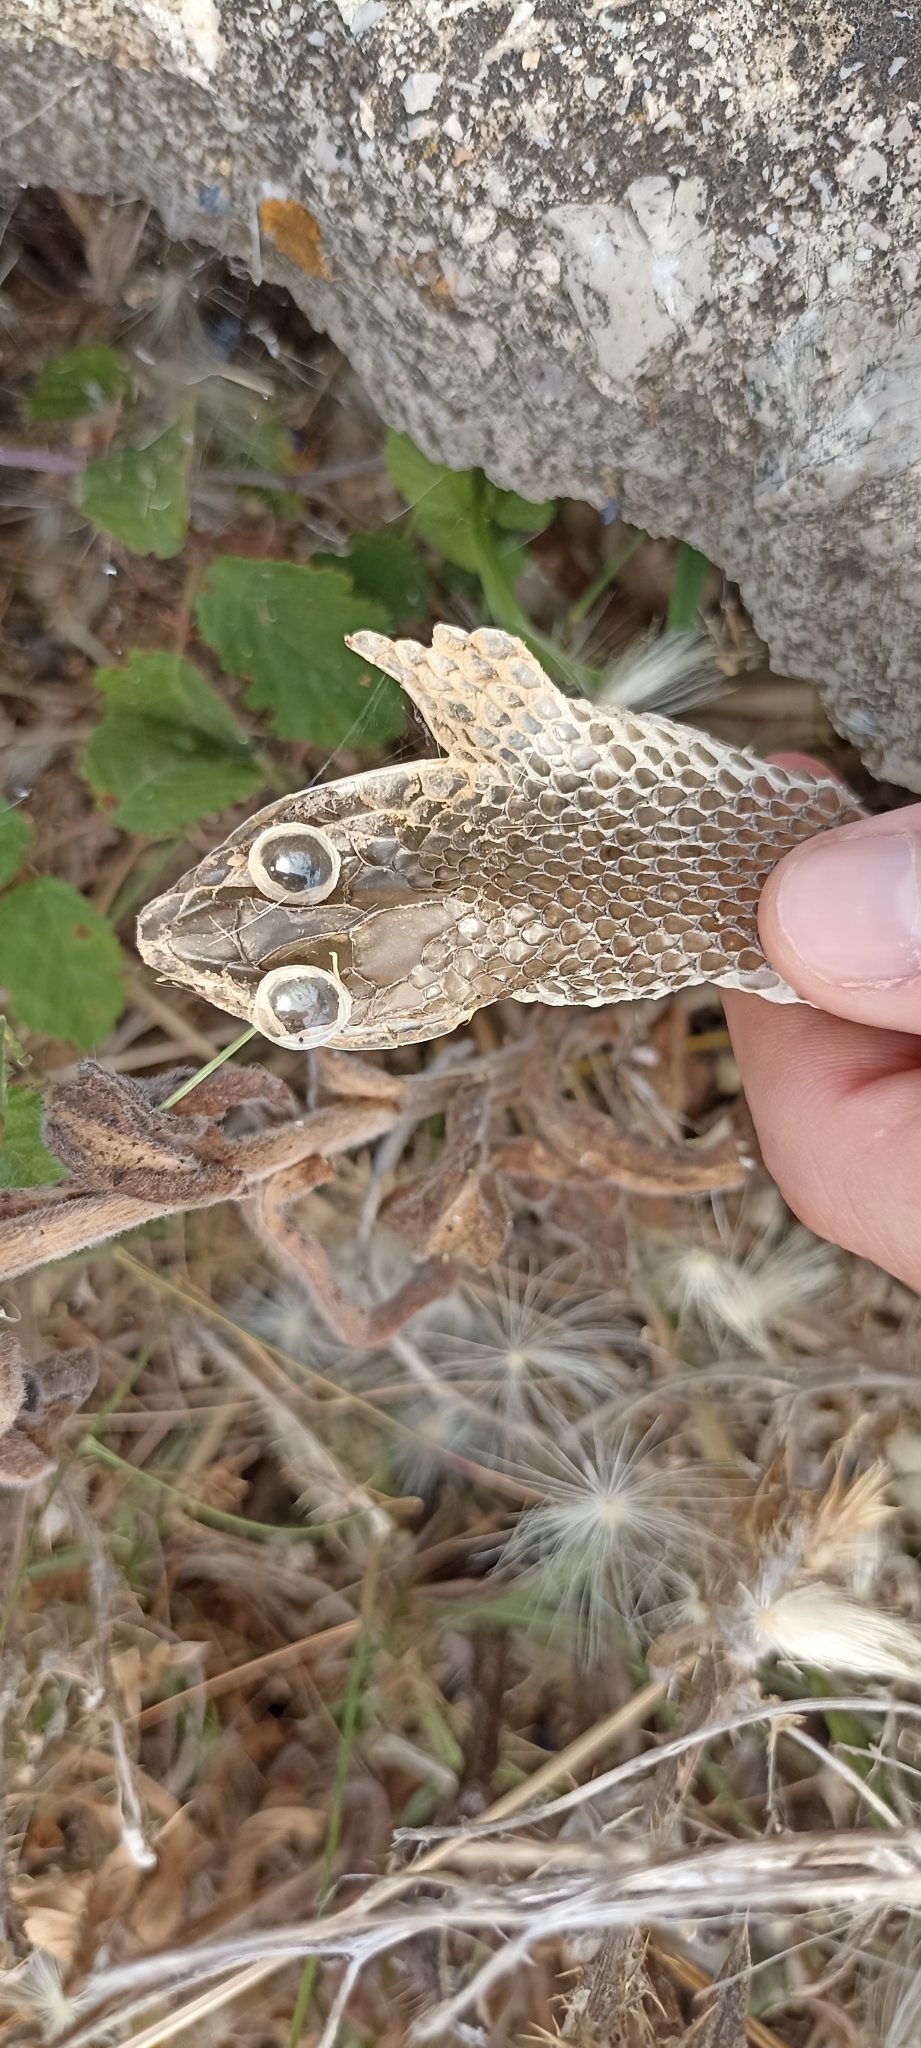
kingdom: Animalia
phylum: Chordata
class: Squamata
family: Psammophiidae
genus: Malpolon
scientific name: Malpolon monspessulanus
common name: Montpellier snake
